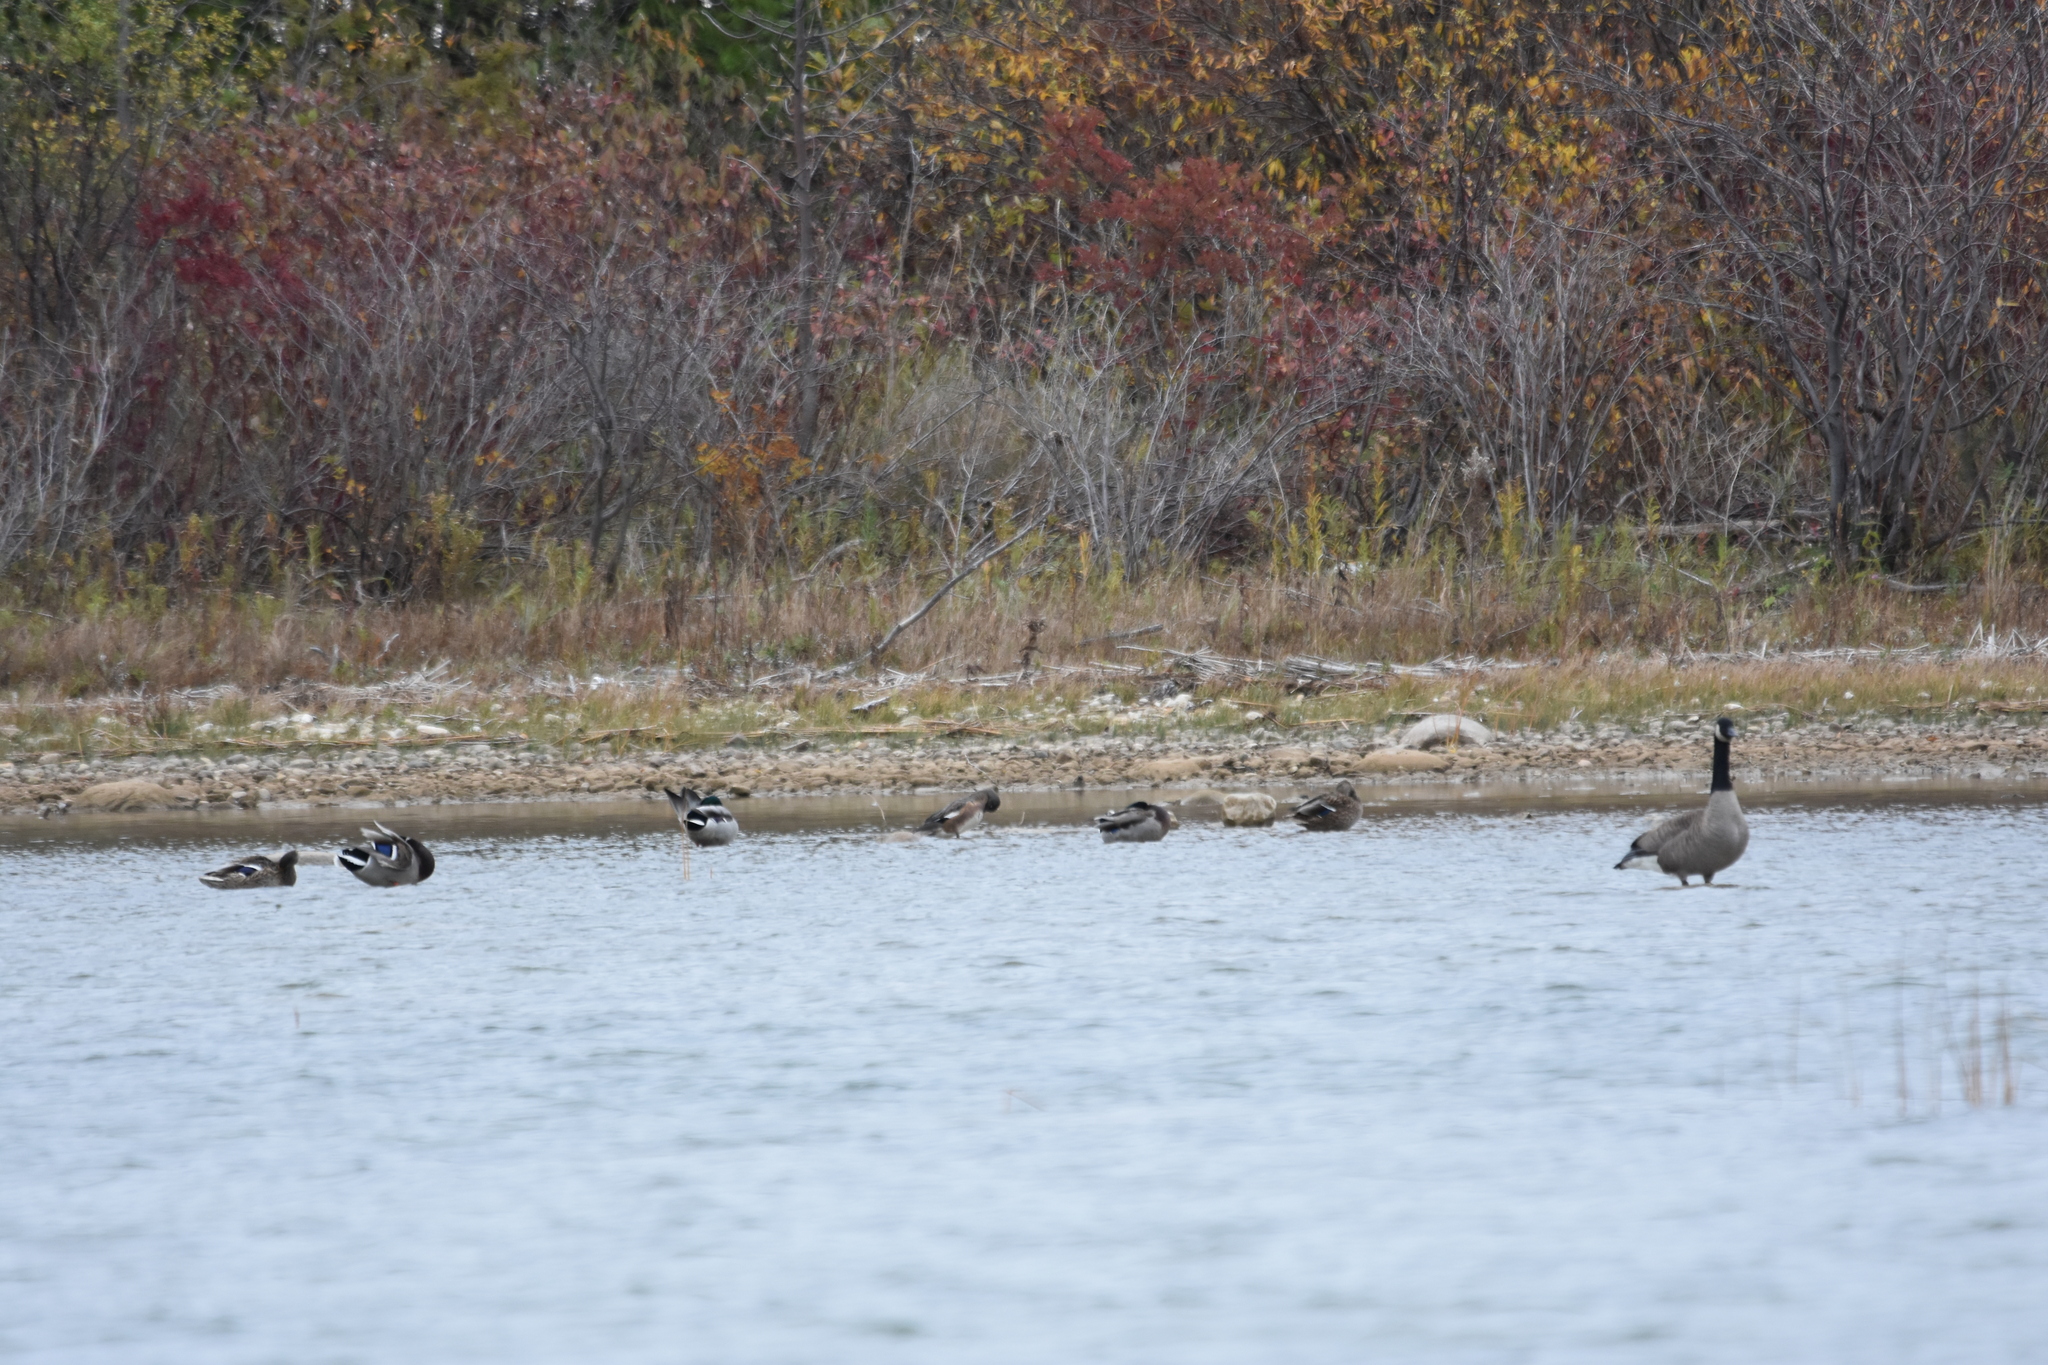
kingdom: Animalia
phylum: Chordata
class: Aves
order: Anseriformes
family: Anatidae
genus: Anas
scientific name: Anas platyrhynchos
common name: Mallard
